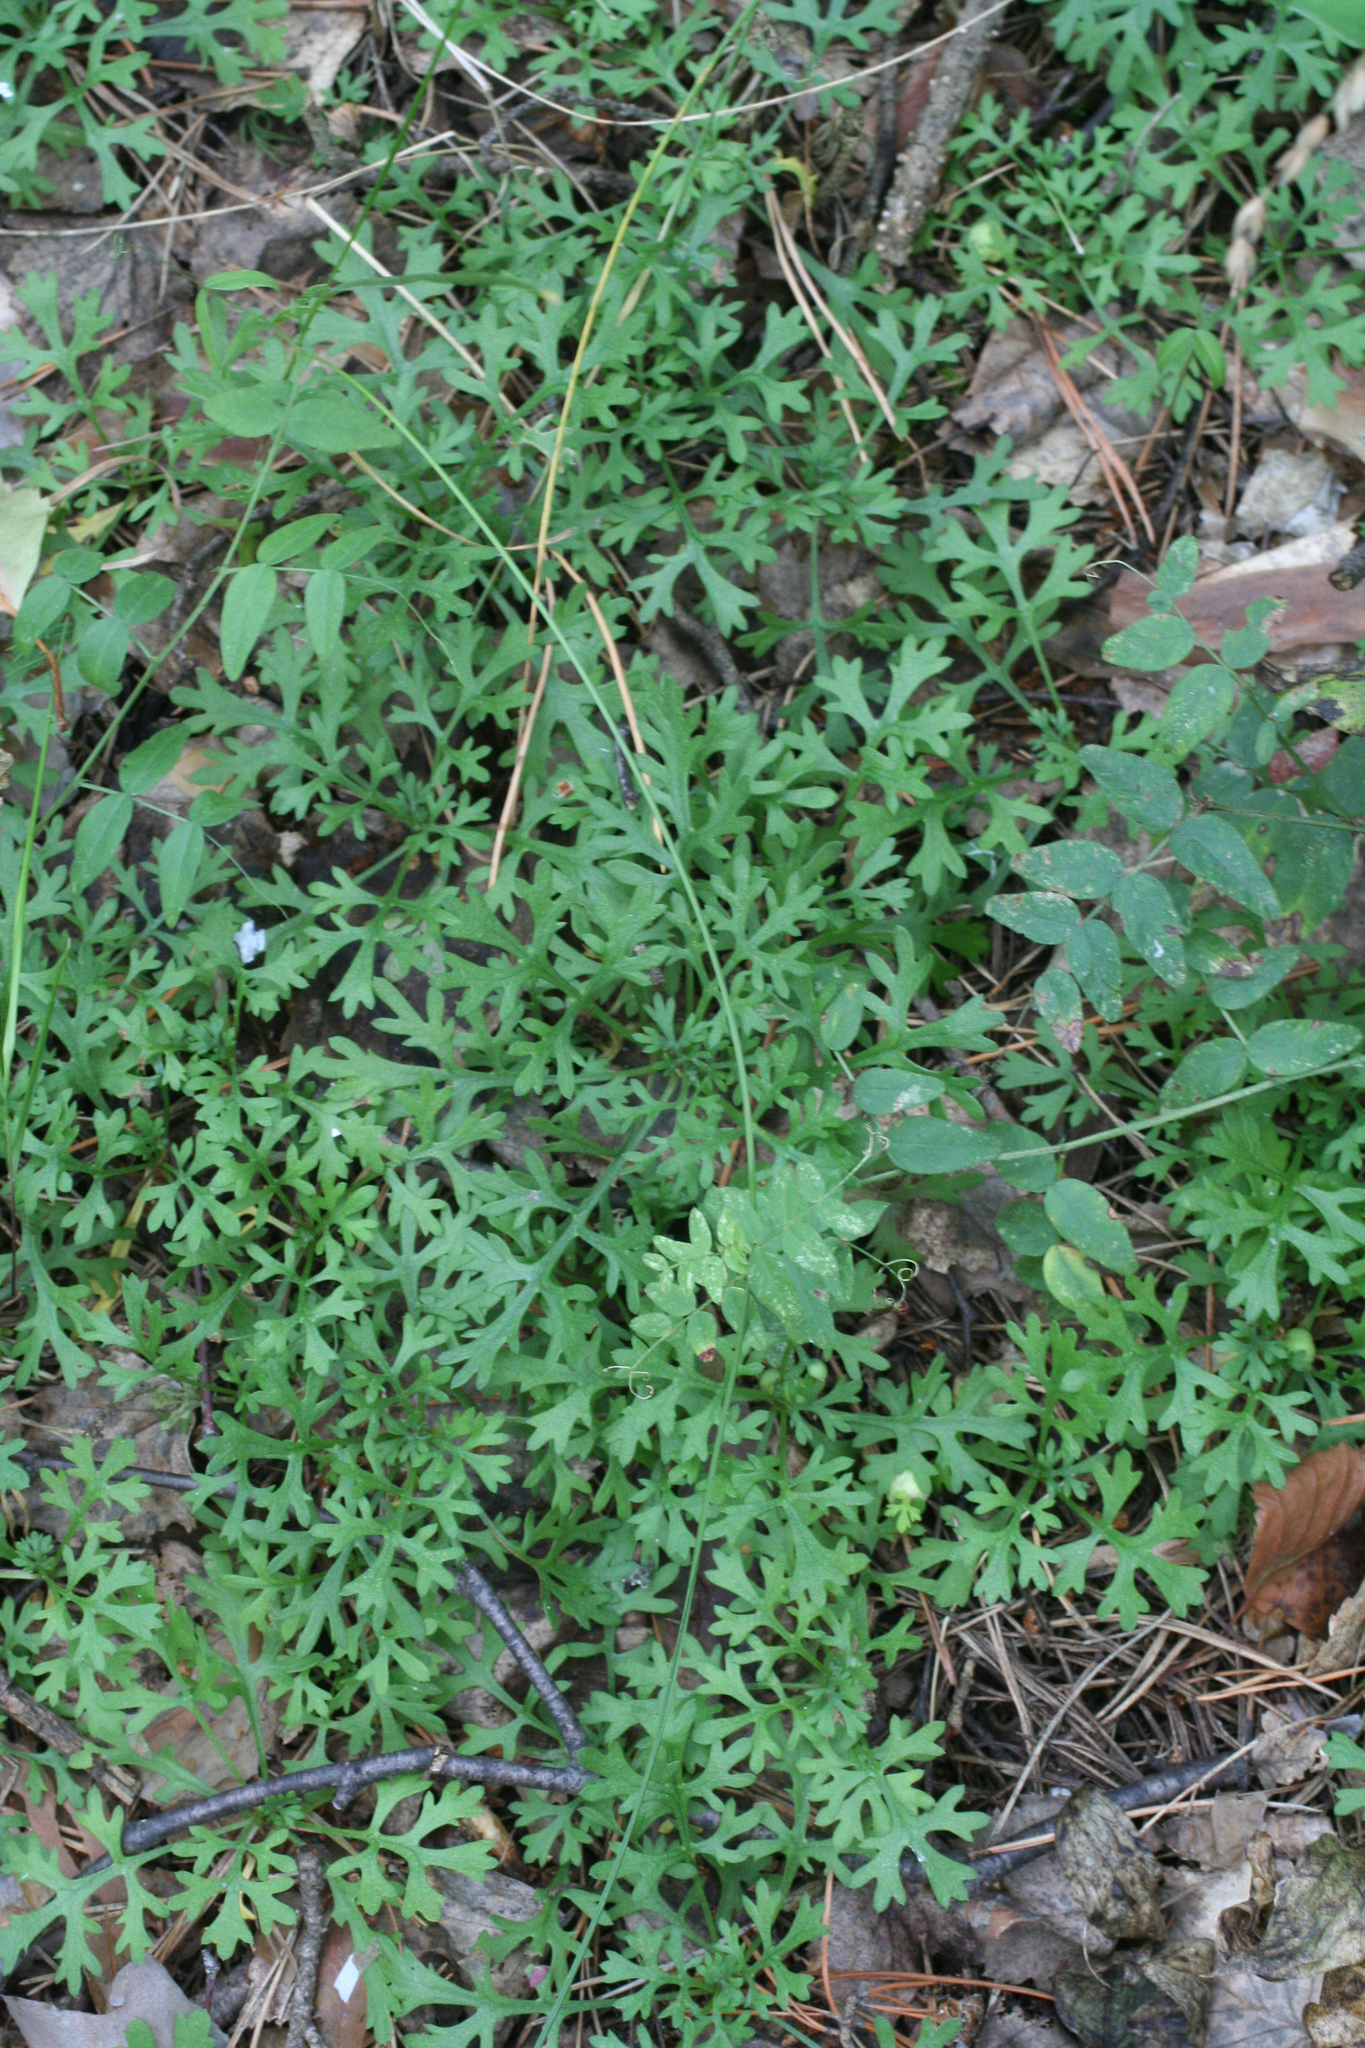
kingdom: Plantae
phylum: Tracheophyta
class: Magnoliopsida
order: Asterales
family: Asteraceae
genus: Chrysanthemum
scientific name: Chrysanthemum zawadzkii
